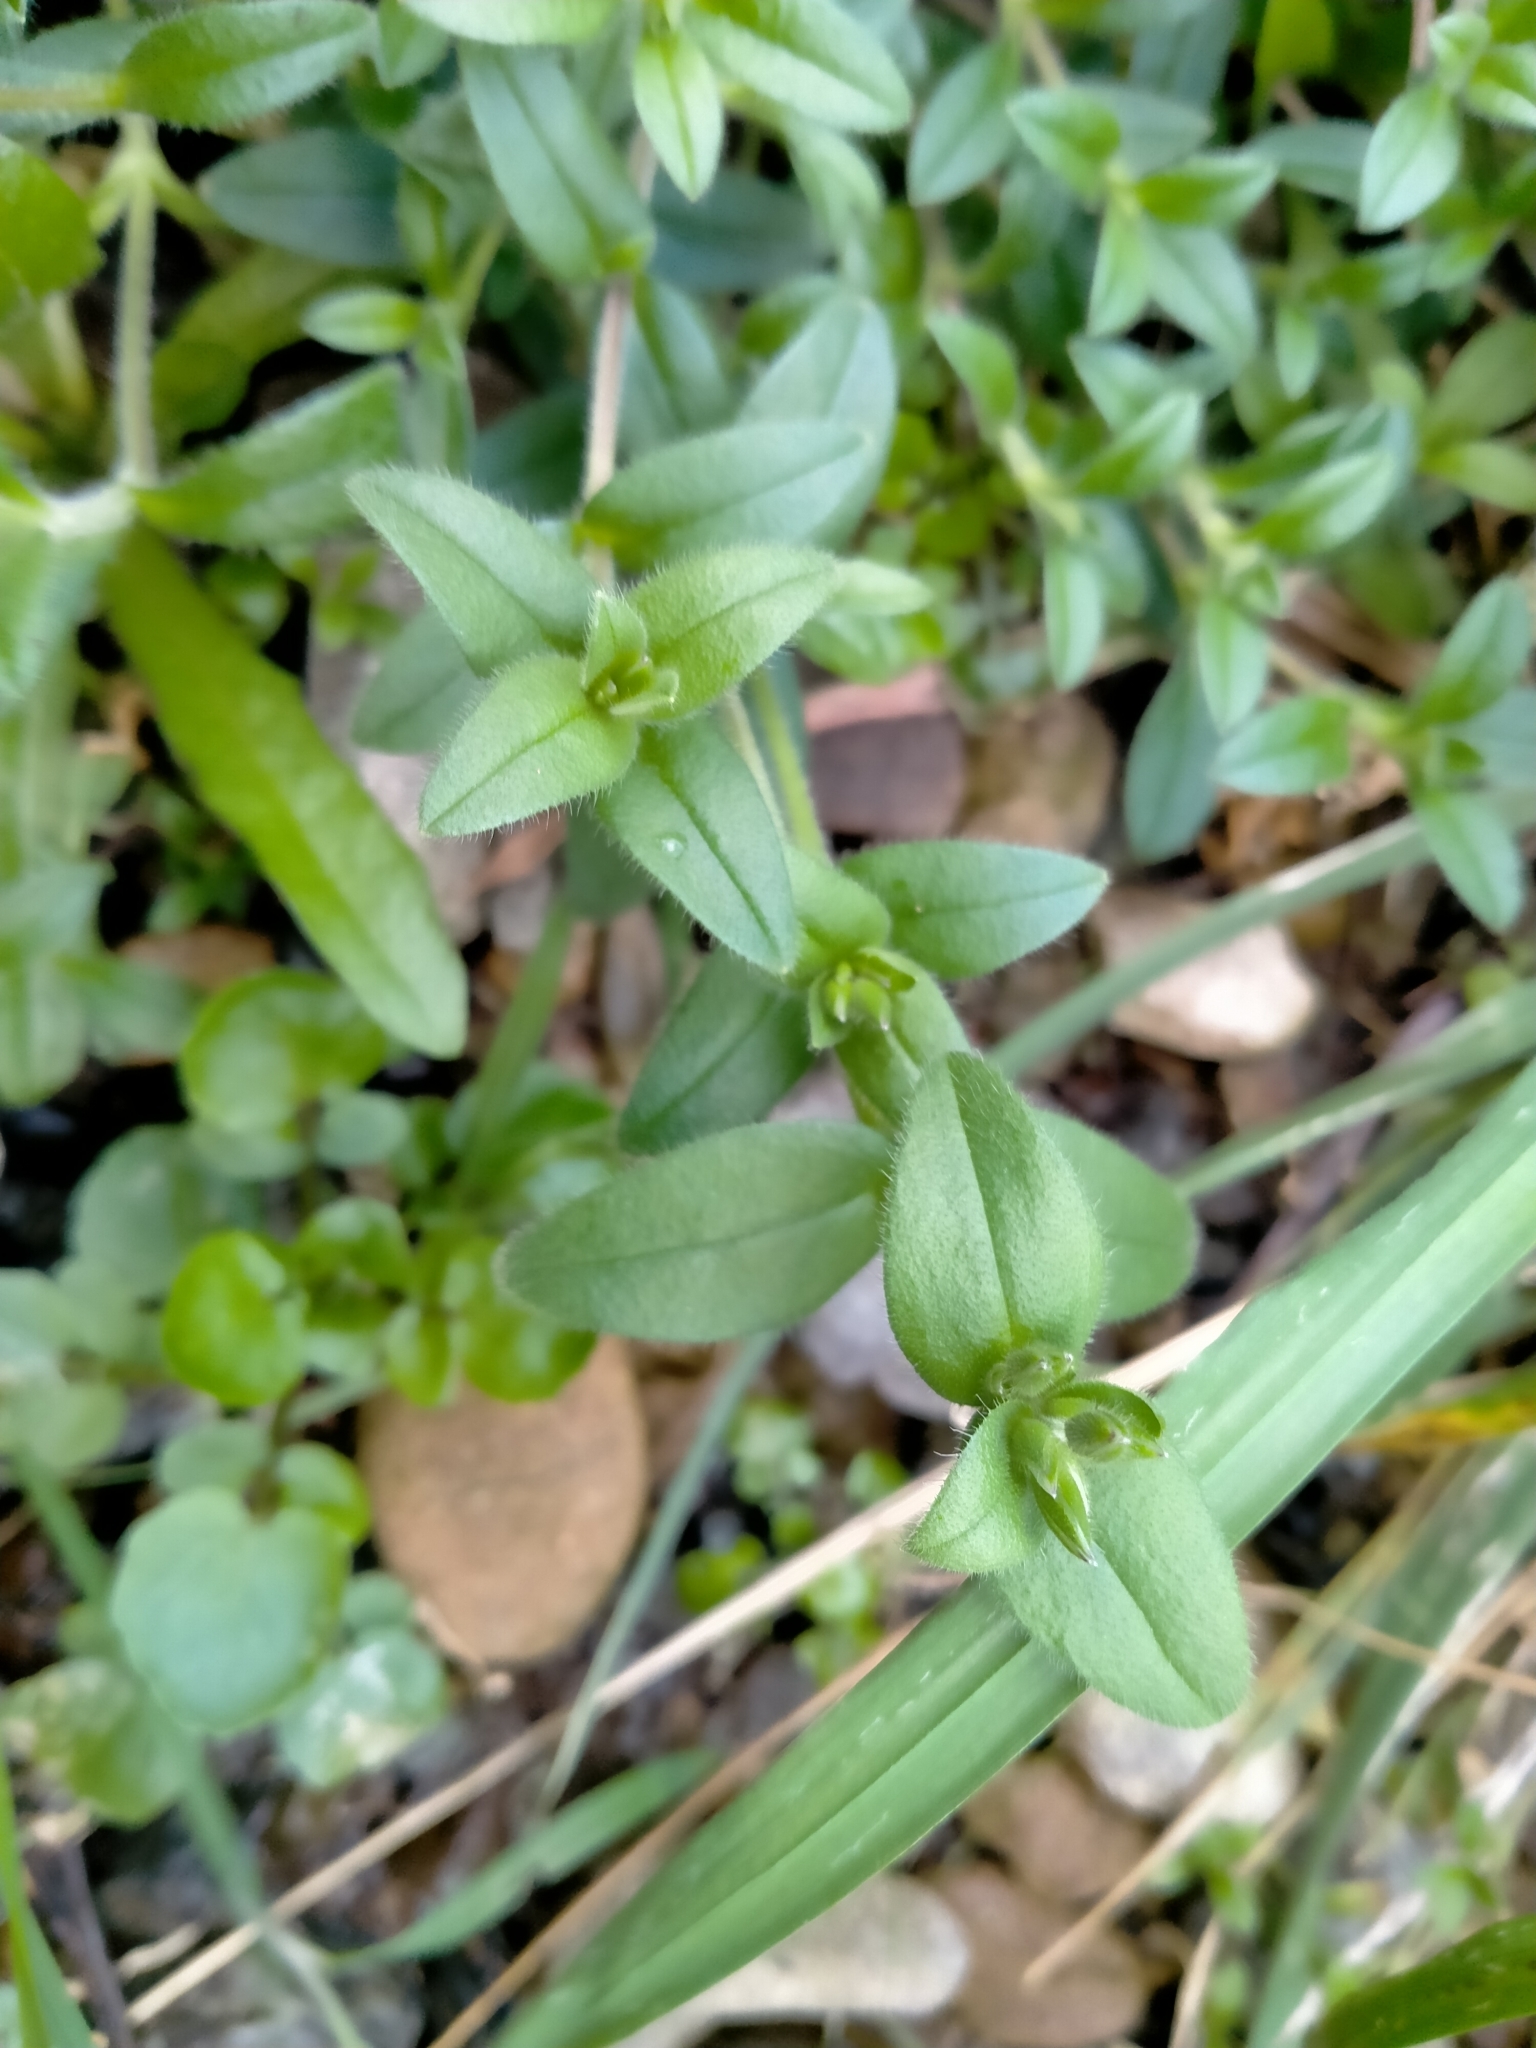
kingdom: Plantae
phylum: Tracheophyta
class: Magnoliopsida
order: Caryophyllales
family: Caryophyllaceae
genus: Cerastium
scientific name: Cerastium fontanum
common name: Common mouse-ear
